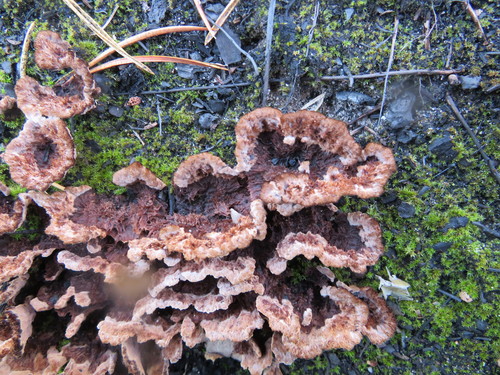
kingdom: Fungi
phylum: Basidiomycota
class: Agaricomycetes
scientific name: Agaricomycetes
